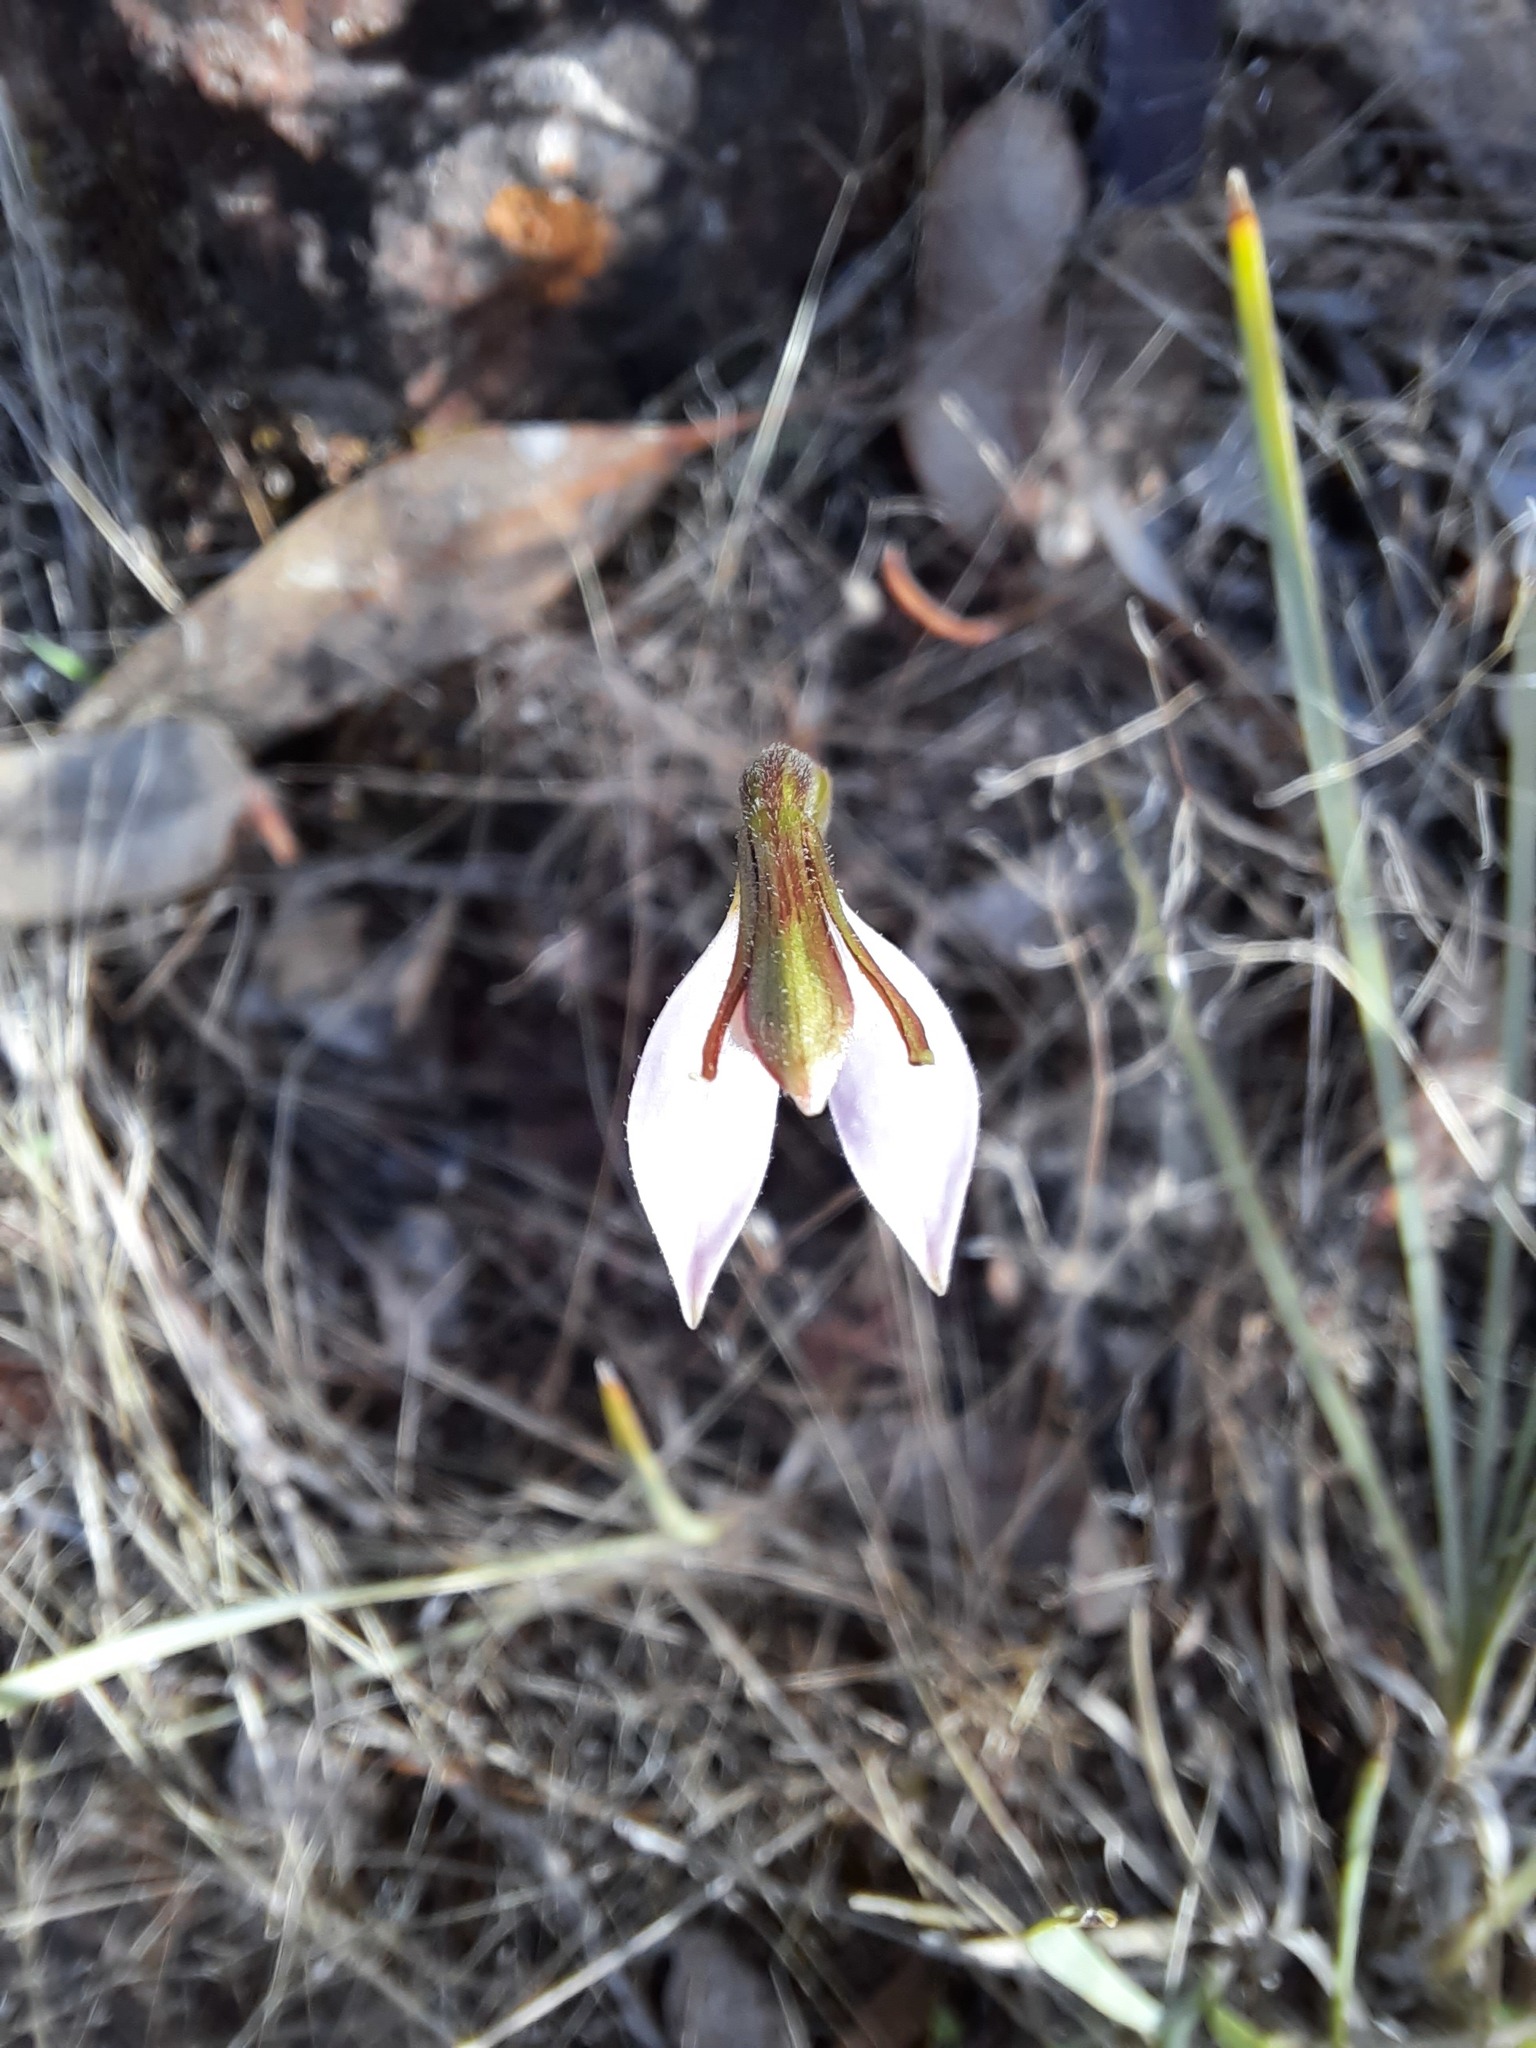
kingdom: Plantae
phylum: Tracheophyta
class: Liliopsida
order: Asparagales
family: Orchidaceae
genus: Eriochilus
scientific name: Eriochilus cucullatus
